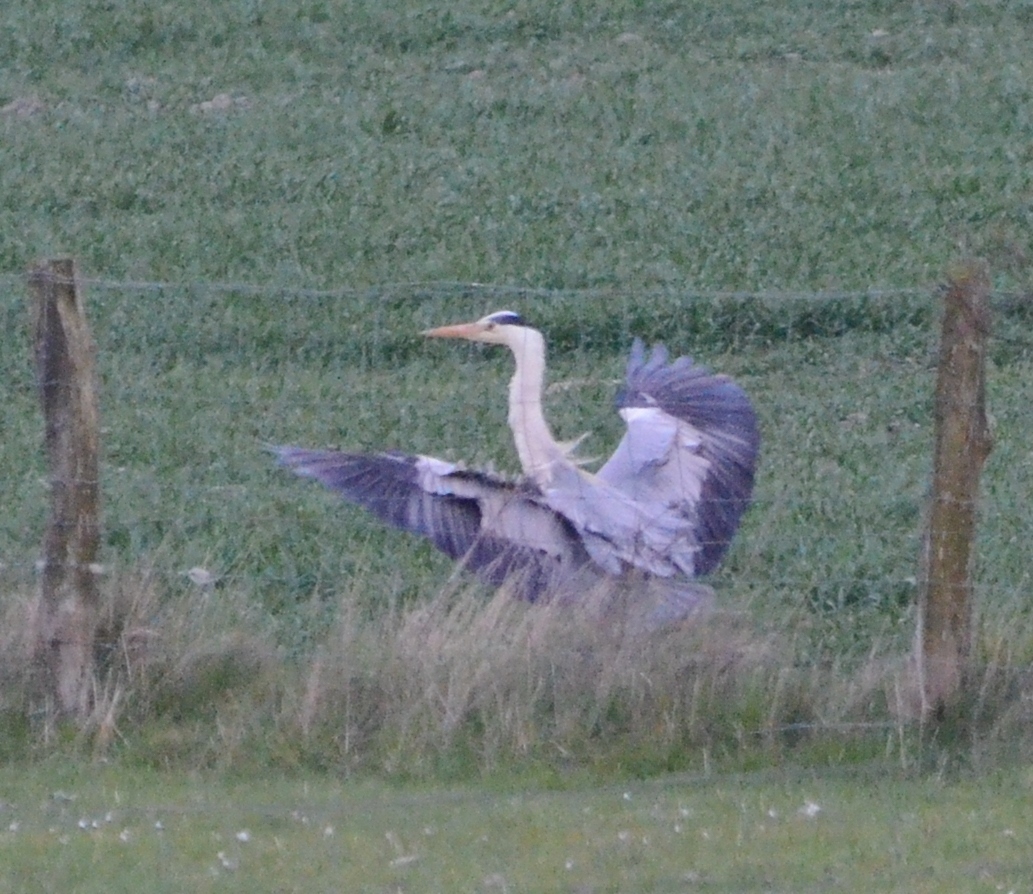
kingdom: Animalia
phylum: Chordata
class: Aves
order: Pelecaniformes
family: Ardeidae
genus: Ardea
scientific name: Ardea cinerea
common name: Grey heron
